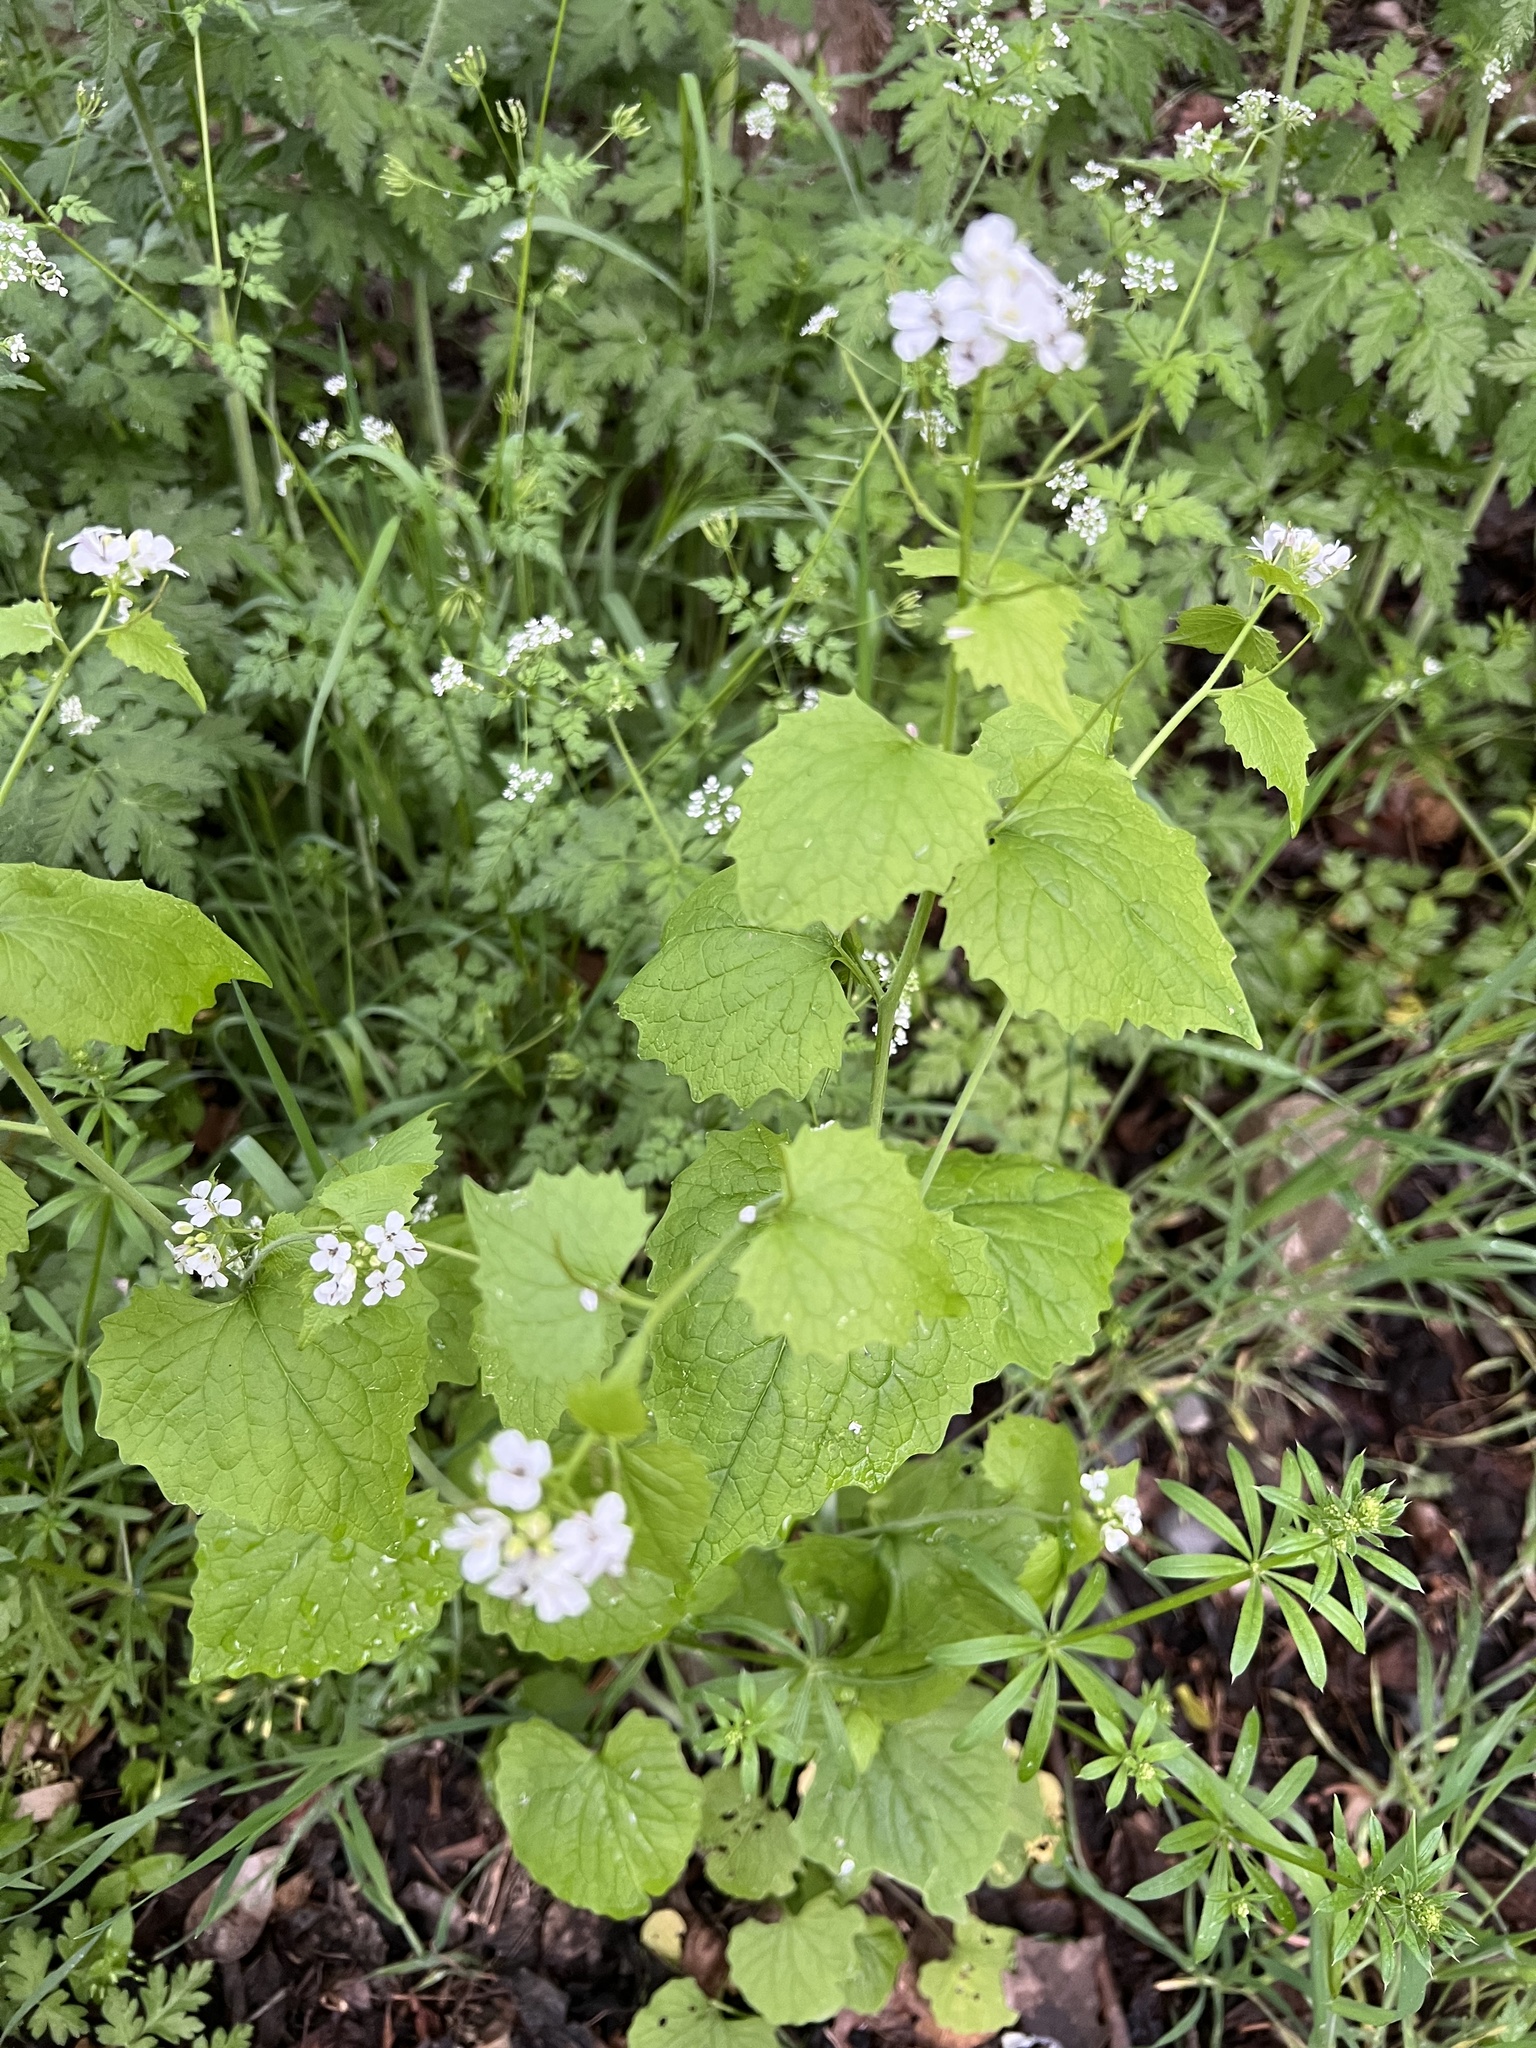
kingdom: Plantae
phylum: Tracheophyta
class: Magnoliopsida
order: Brassicales
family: Brassicaceae
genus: Alliaria
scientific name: Alliaria petiolata
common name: Garlic mustard
